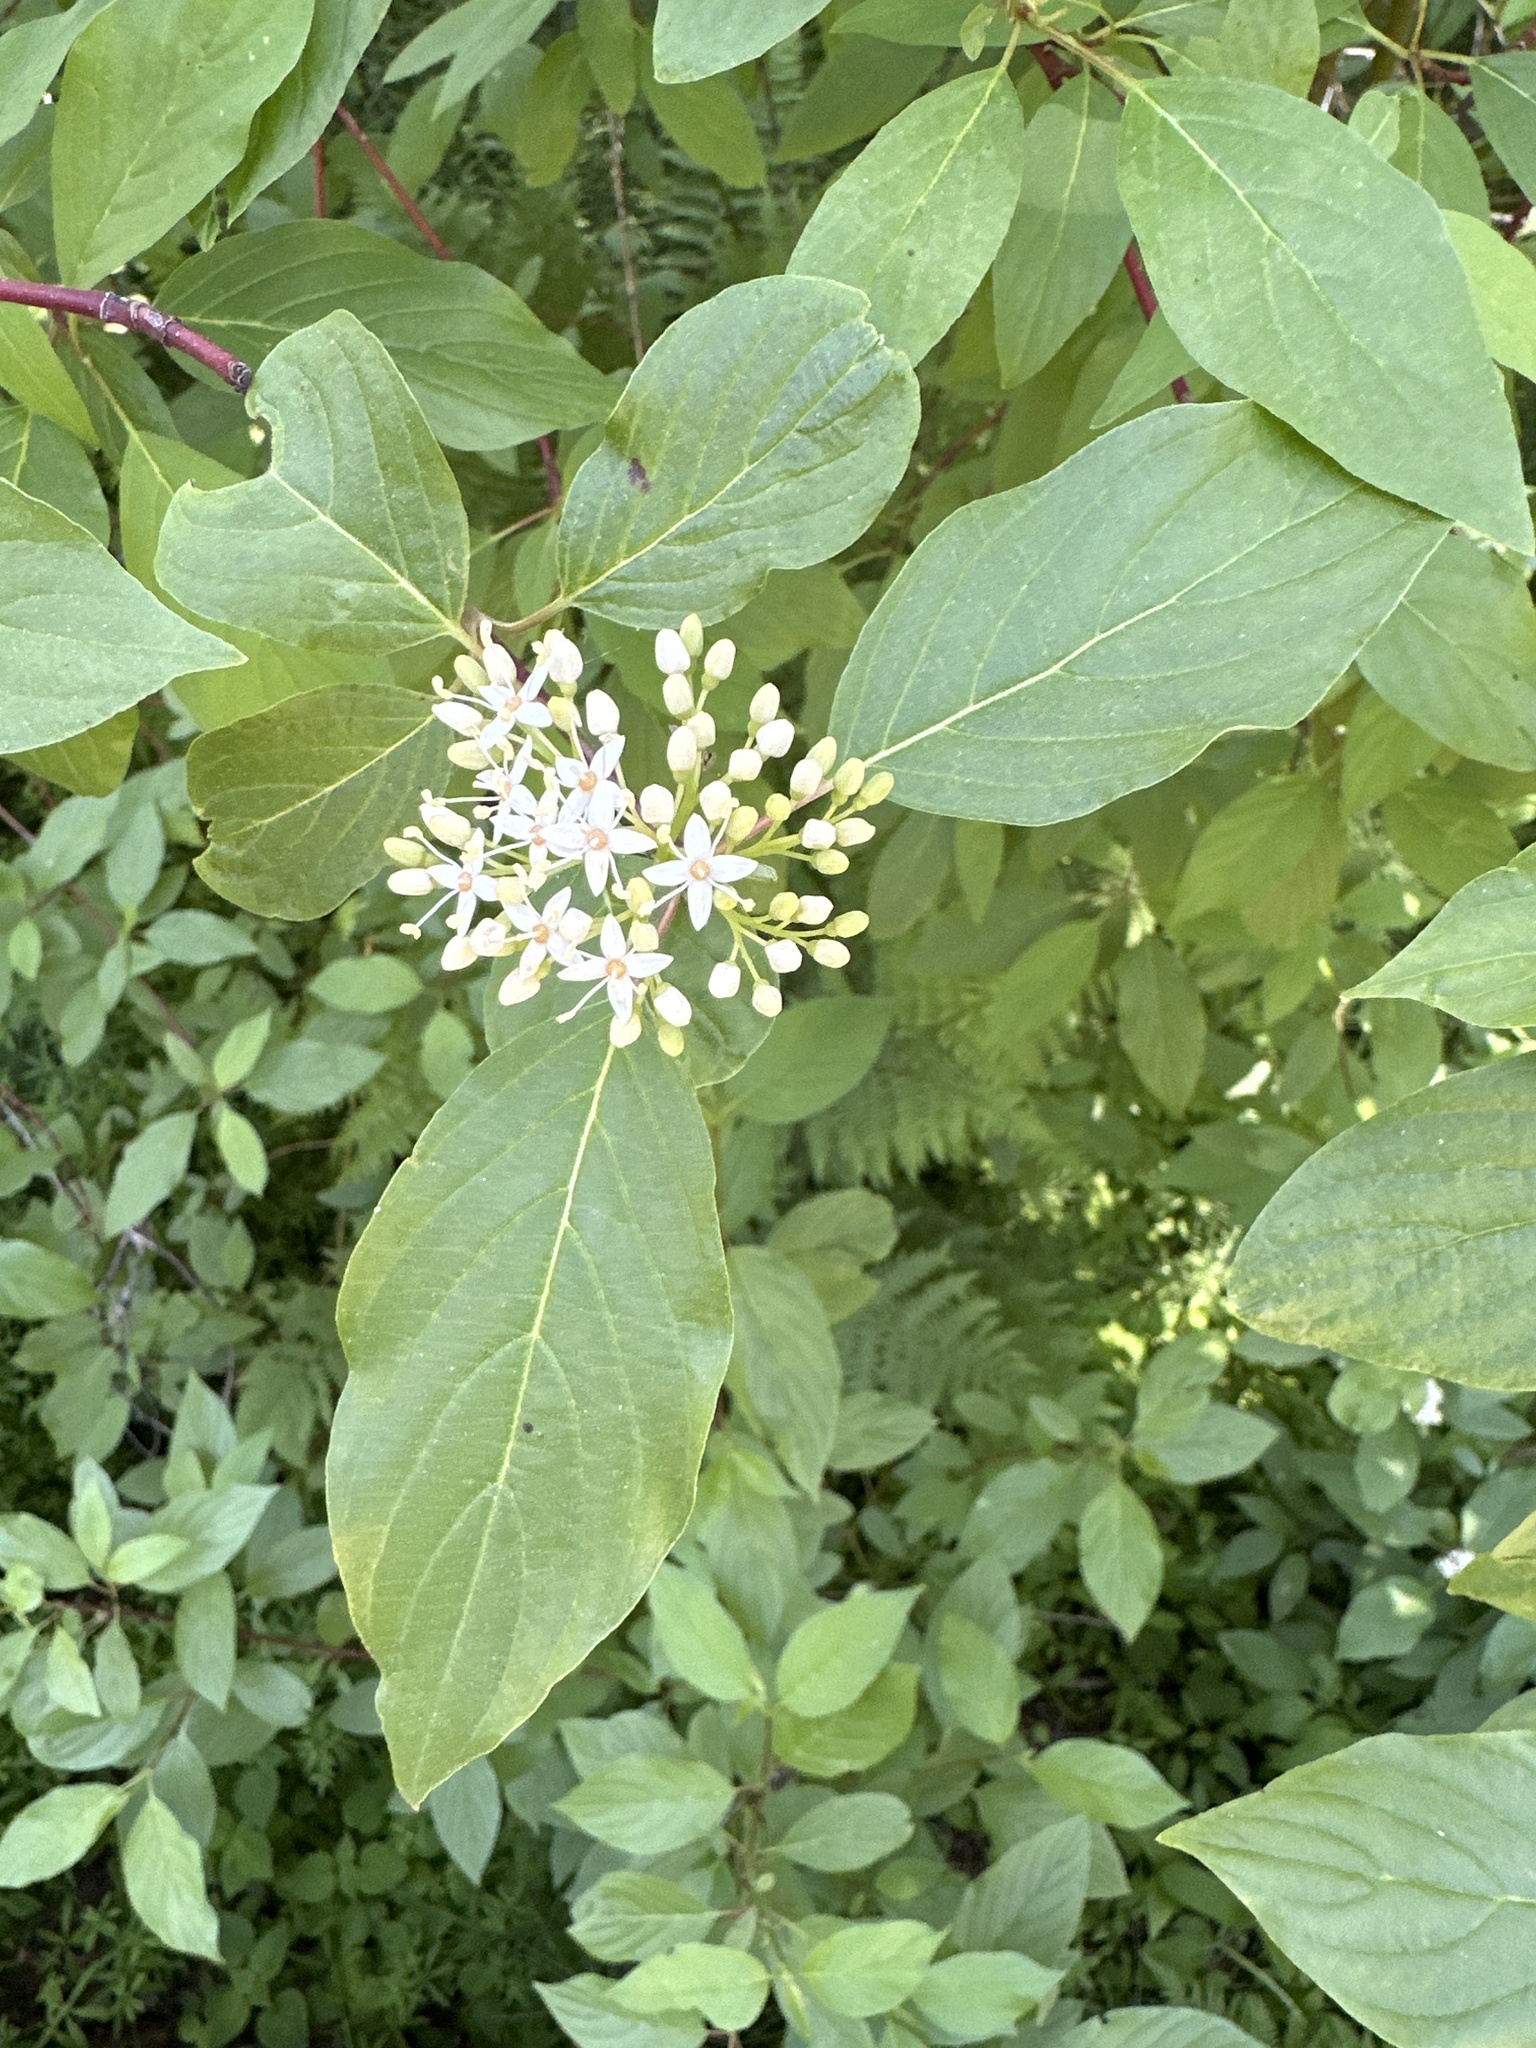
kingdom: Plantae
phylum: Tracheophyta
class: Magnoliopsida
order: Cornales
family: Cornaceae
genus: Cornus
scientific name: Cornus sericea
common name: Red-osier dogwood
